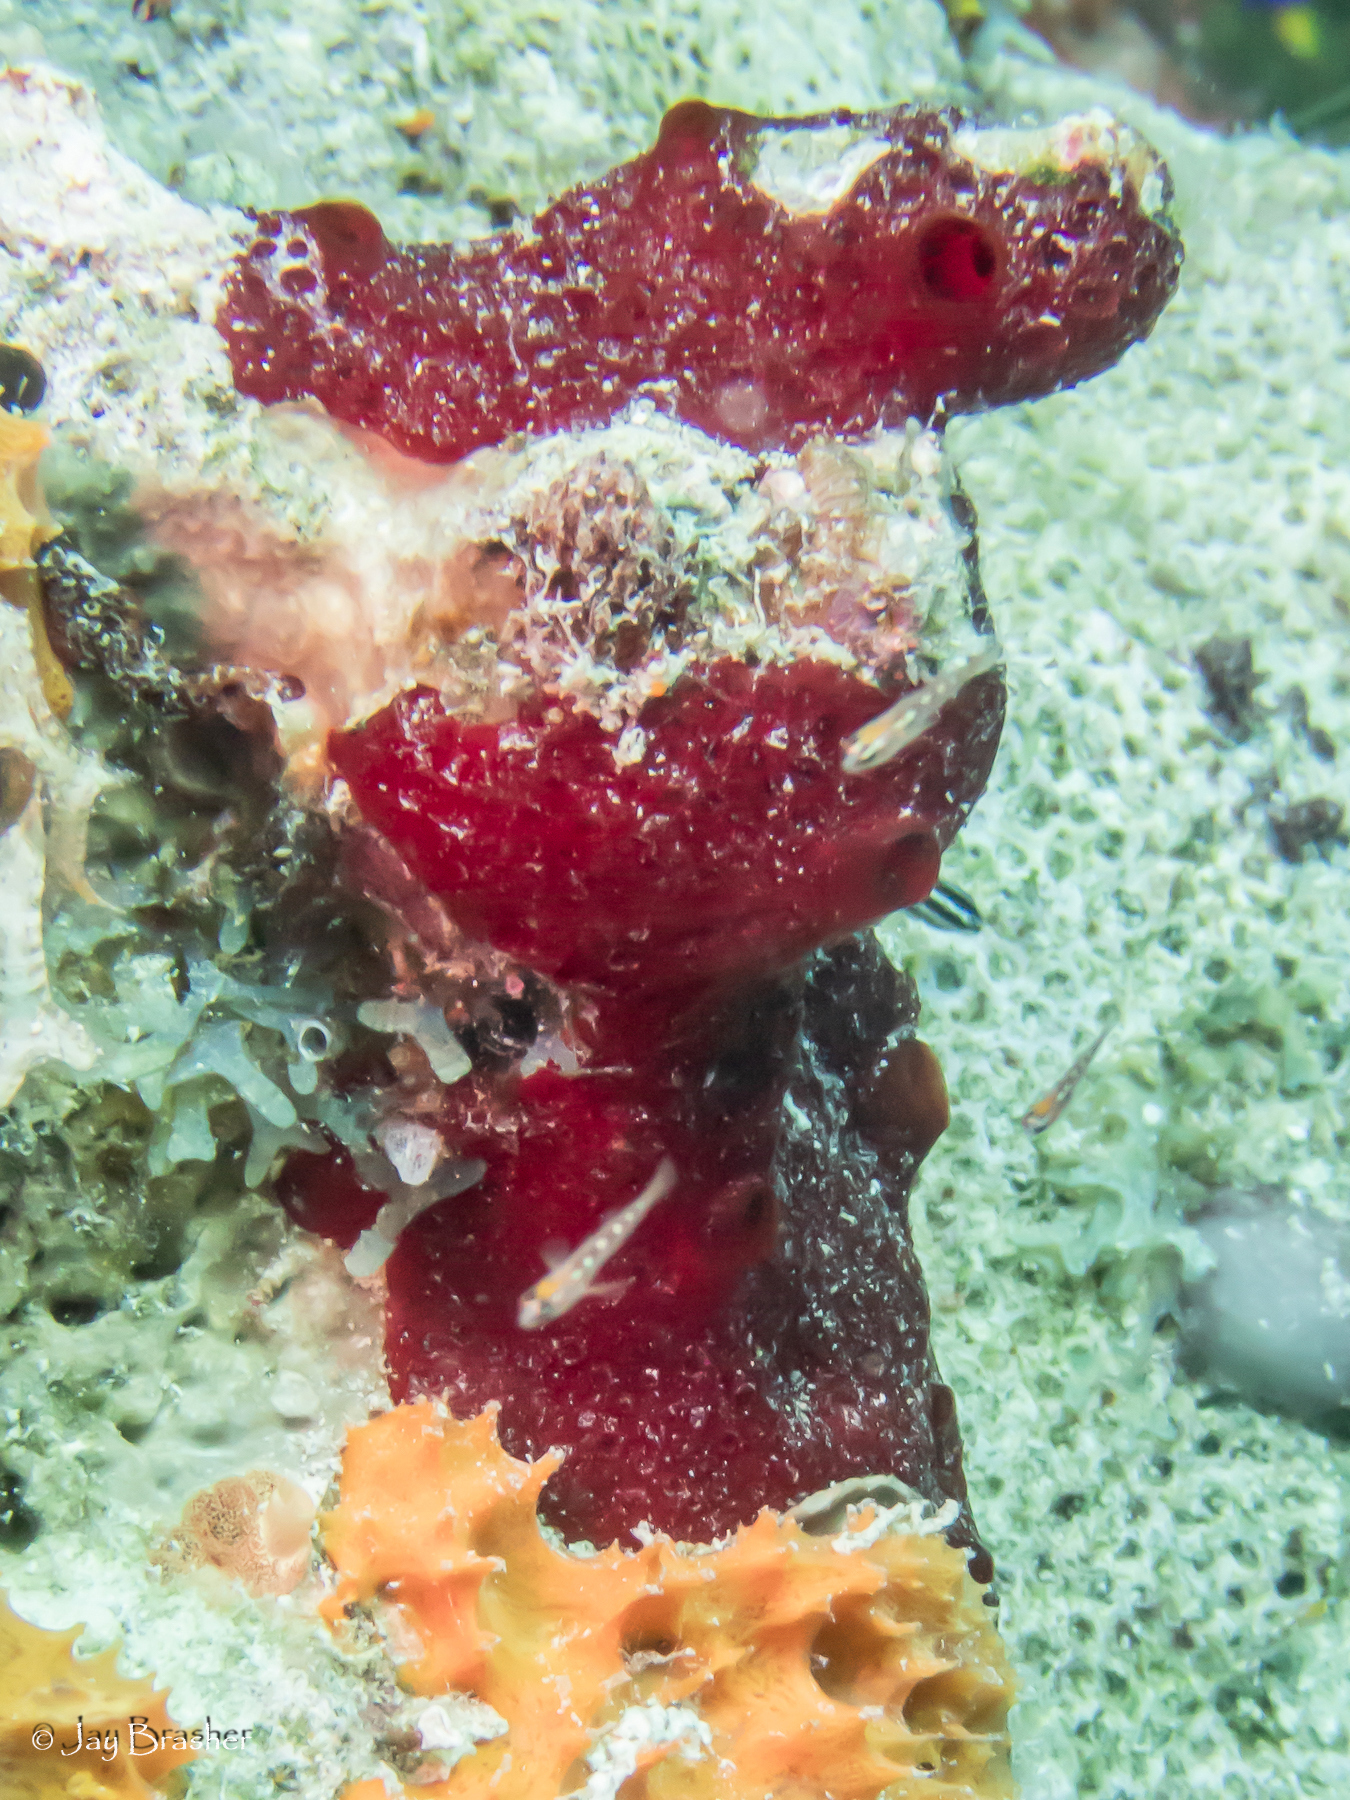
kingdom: Animalia
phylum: Porifera
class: Demospongiae
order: Poecilosclerida
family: Hymedesmiidae
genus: Phorbas
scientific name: Phorbas amaranthus
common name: Red sieve encrusting sponge
